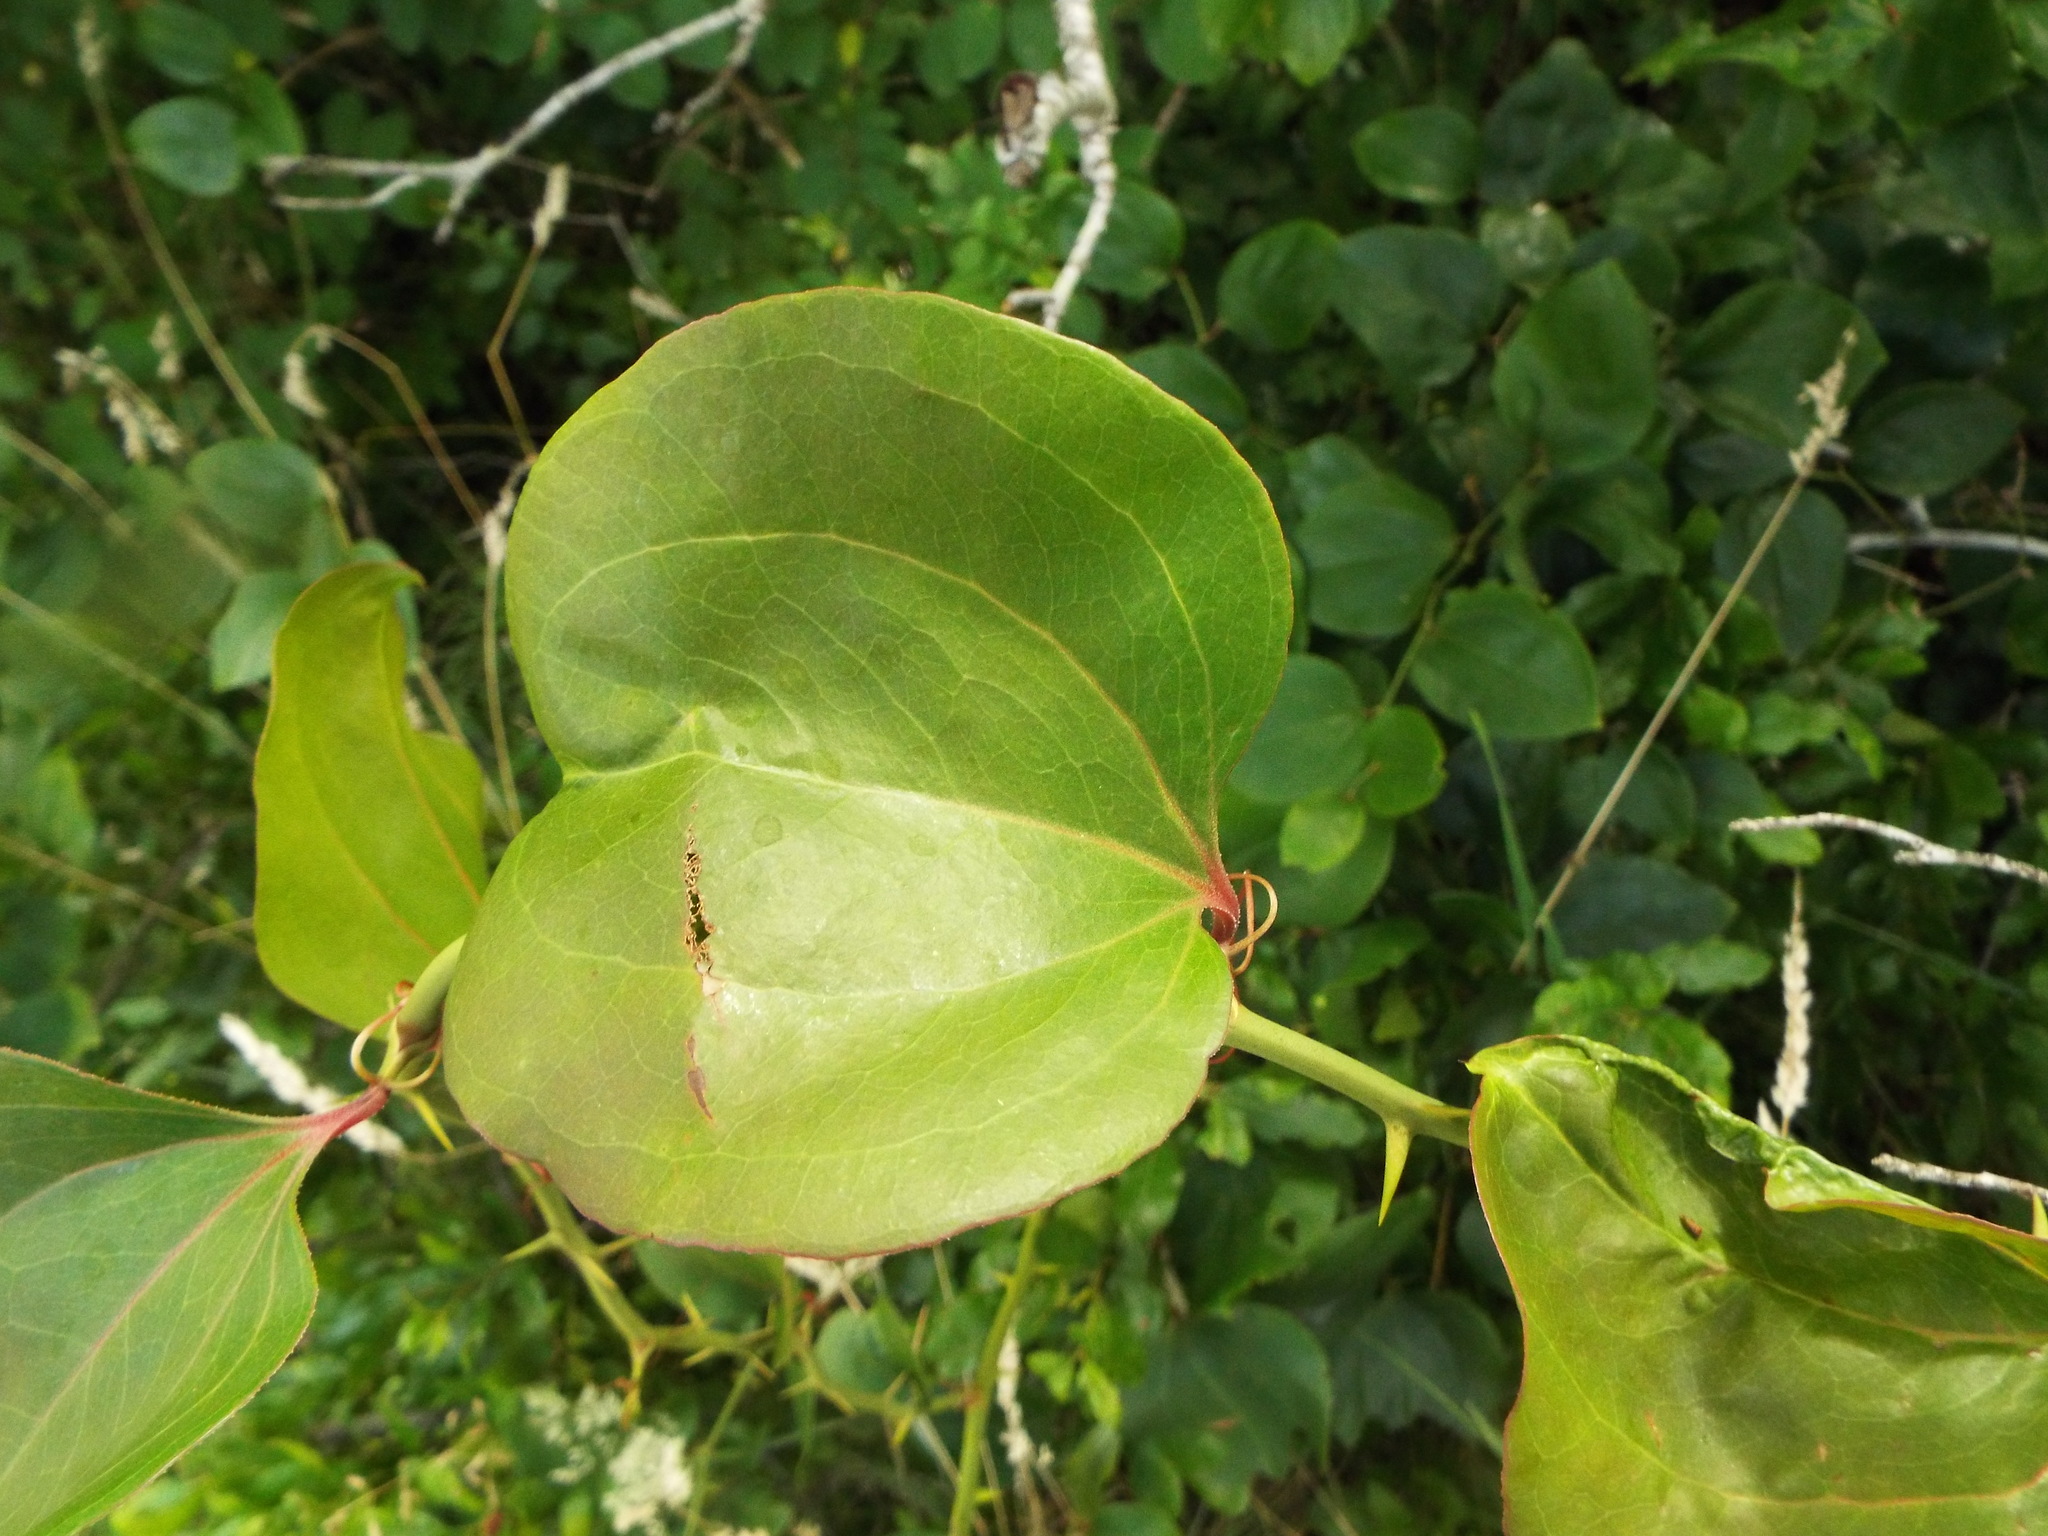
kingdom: Plantae
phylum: Tracheophyta
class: Liliopsida
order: Liliales
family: Smilacaceae
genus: Smilax
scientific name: Smilax rotundifolia
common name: Bullbriar
